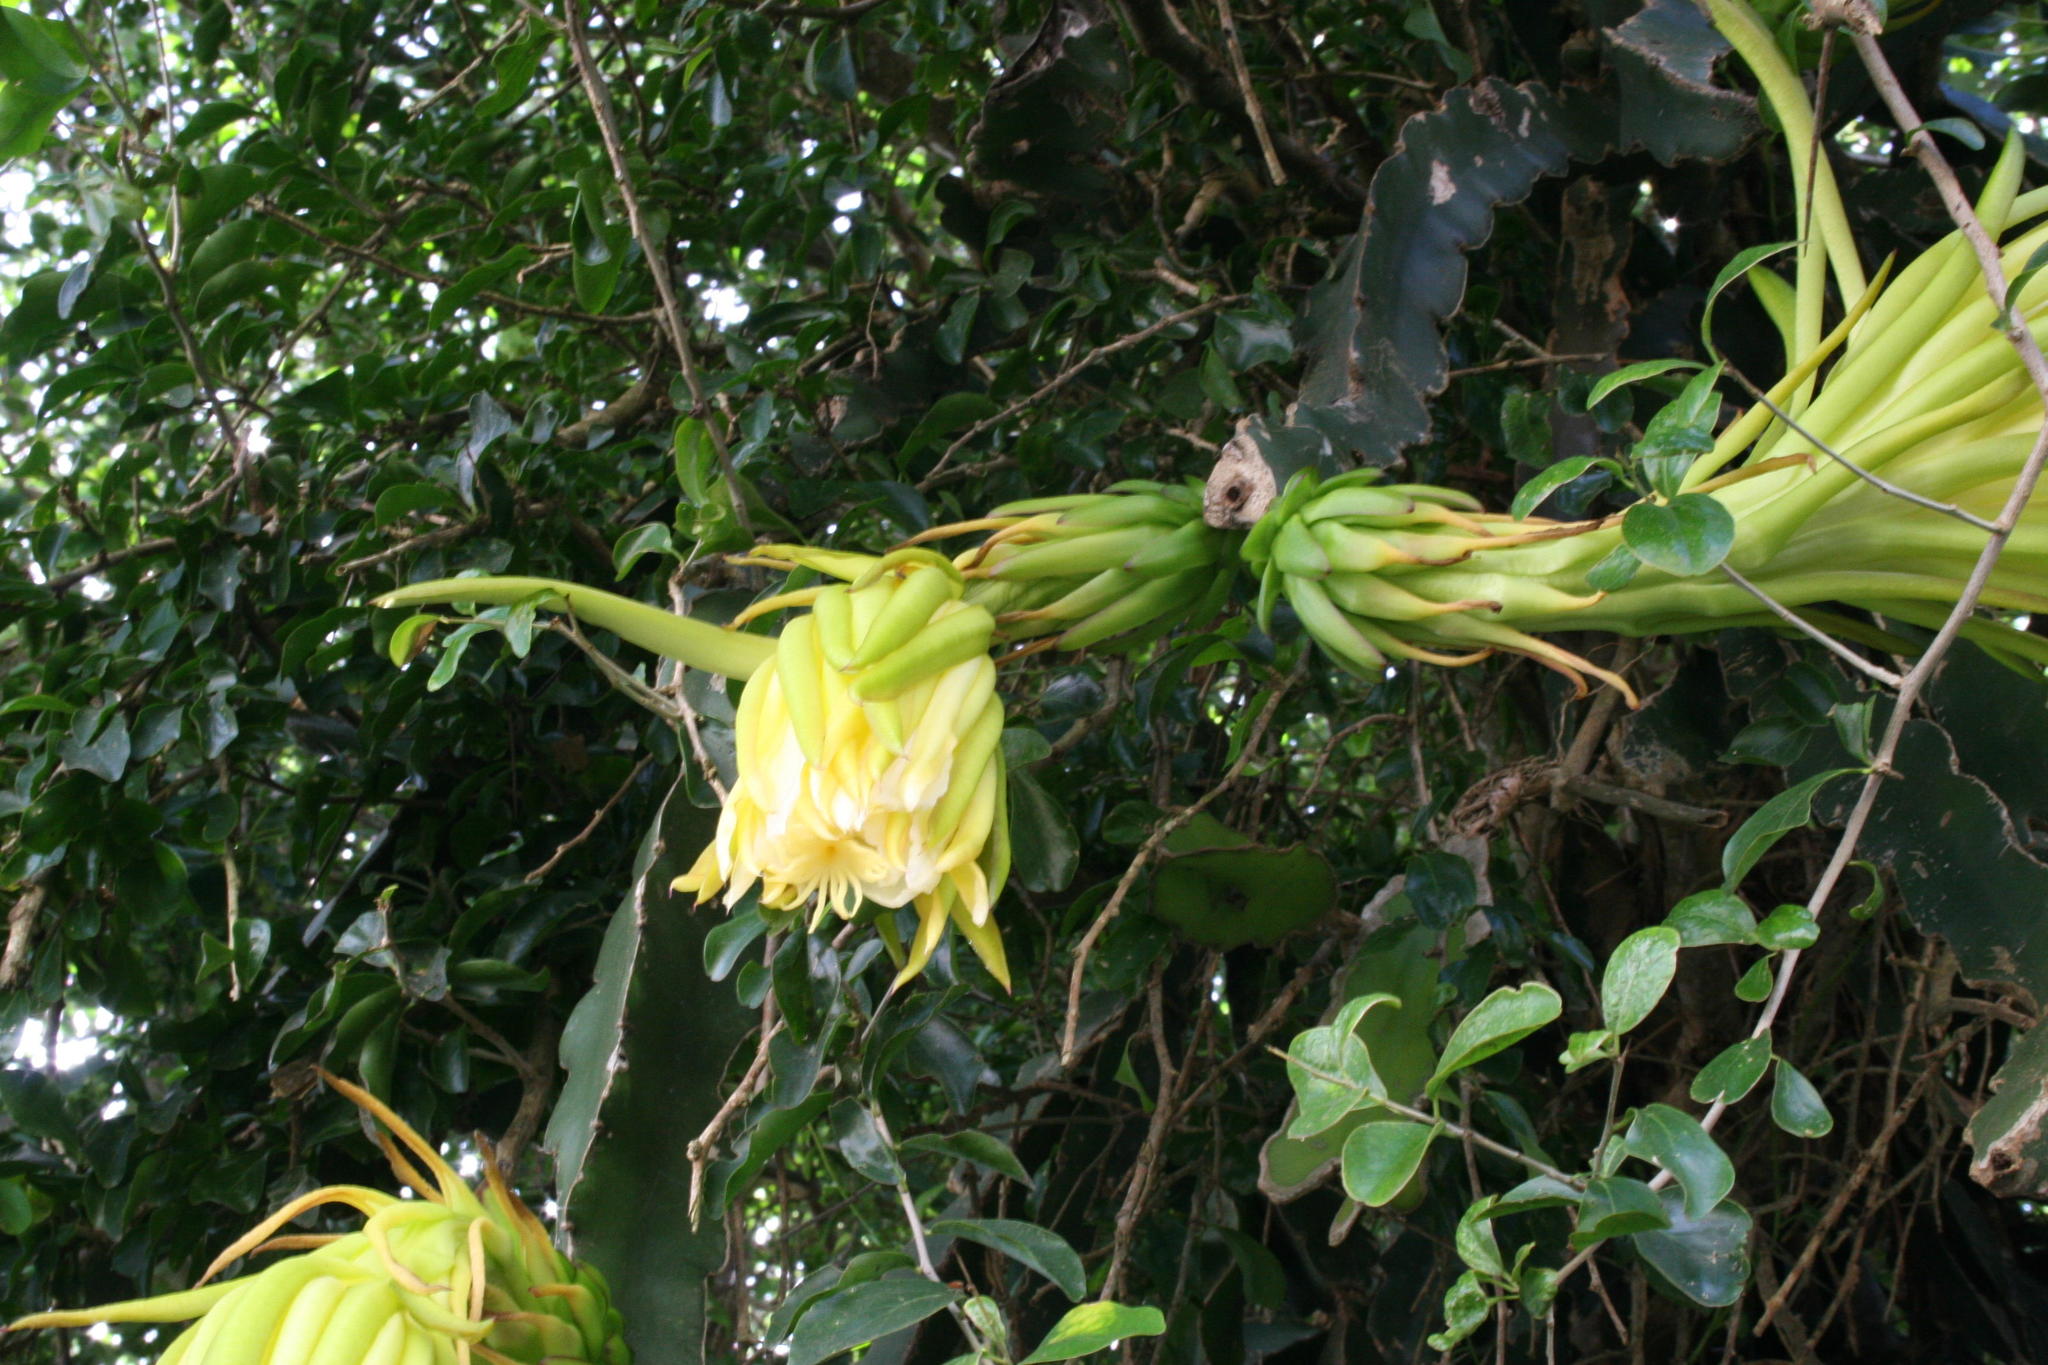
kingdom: Plantae
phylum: Tracheophyta
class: Magnoliopsida
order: Caryophyllales
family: Cactaceae
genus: Selenicereus
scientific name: Selenicereus undatus
